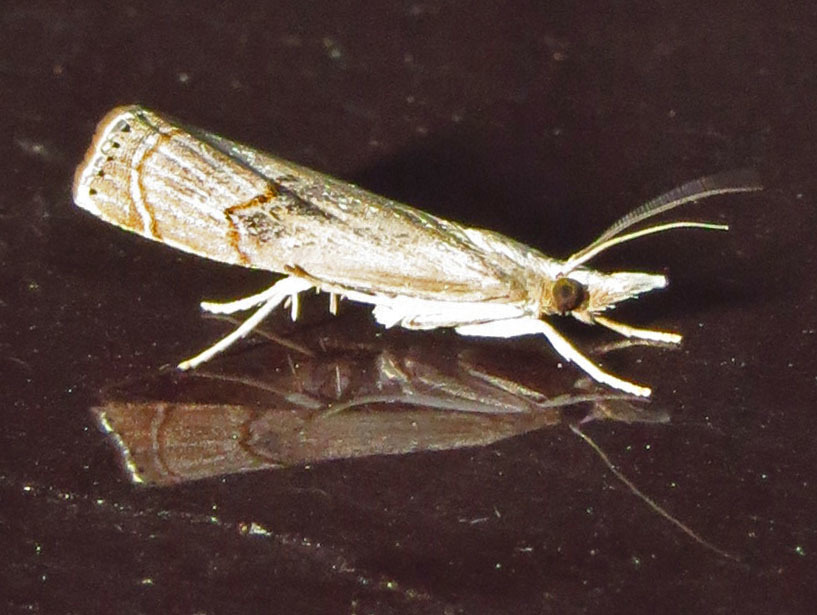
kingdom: Animalia
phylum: Arthropoda
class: Insecta
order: Lepidoptera
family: Crambidae
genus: Parapediasia
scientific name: Parapediasia teterellus
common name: Bluegrass webworm moth
